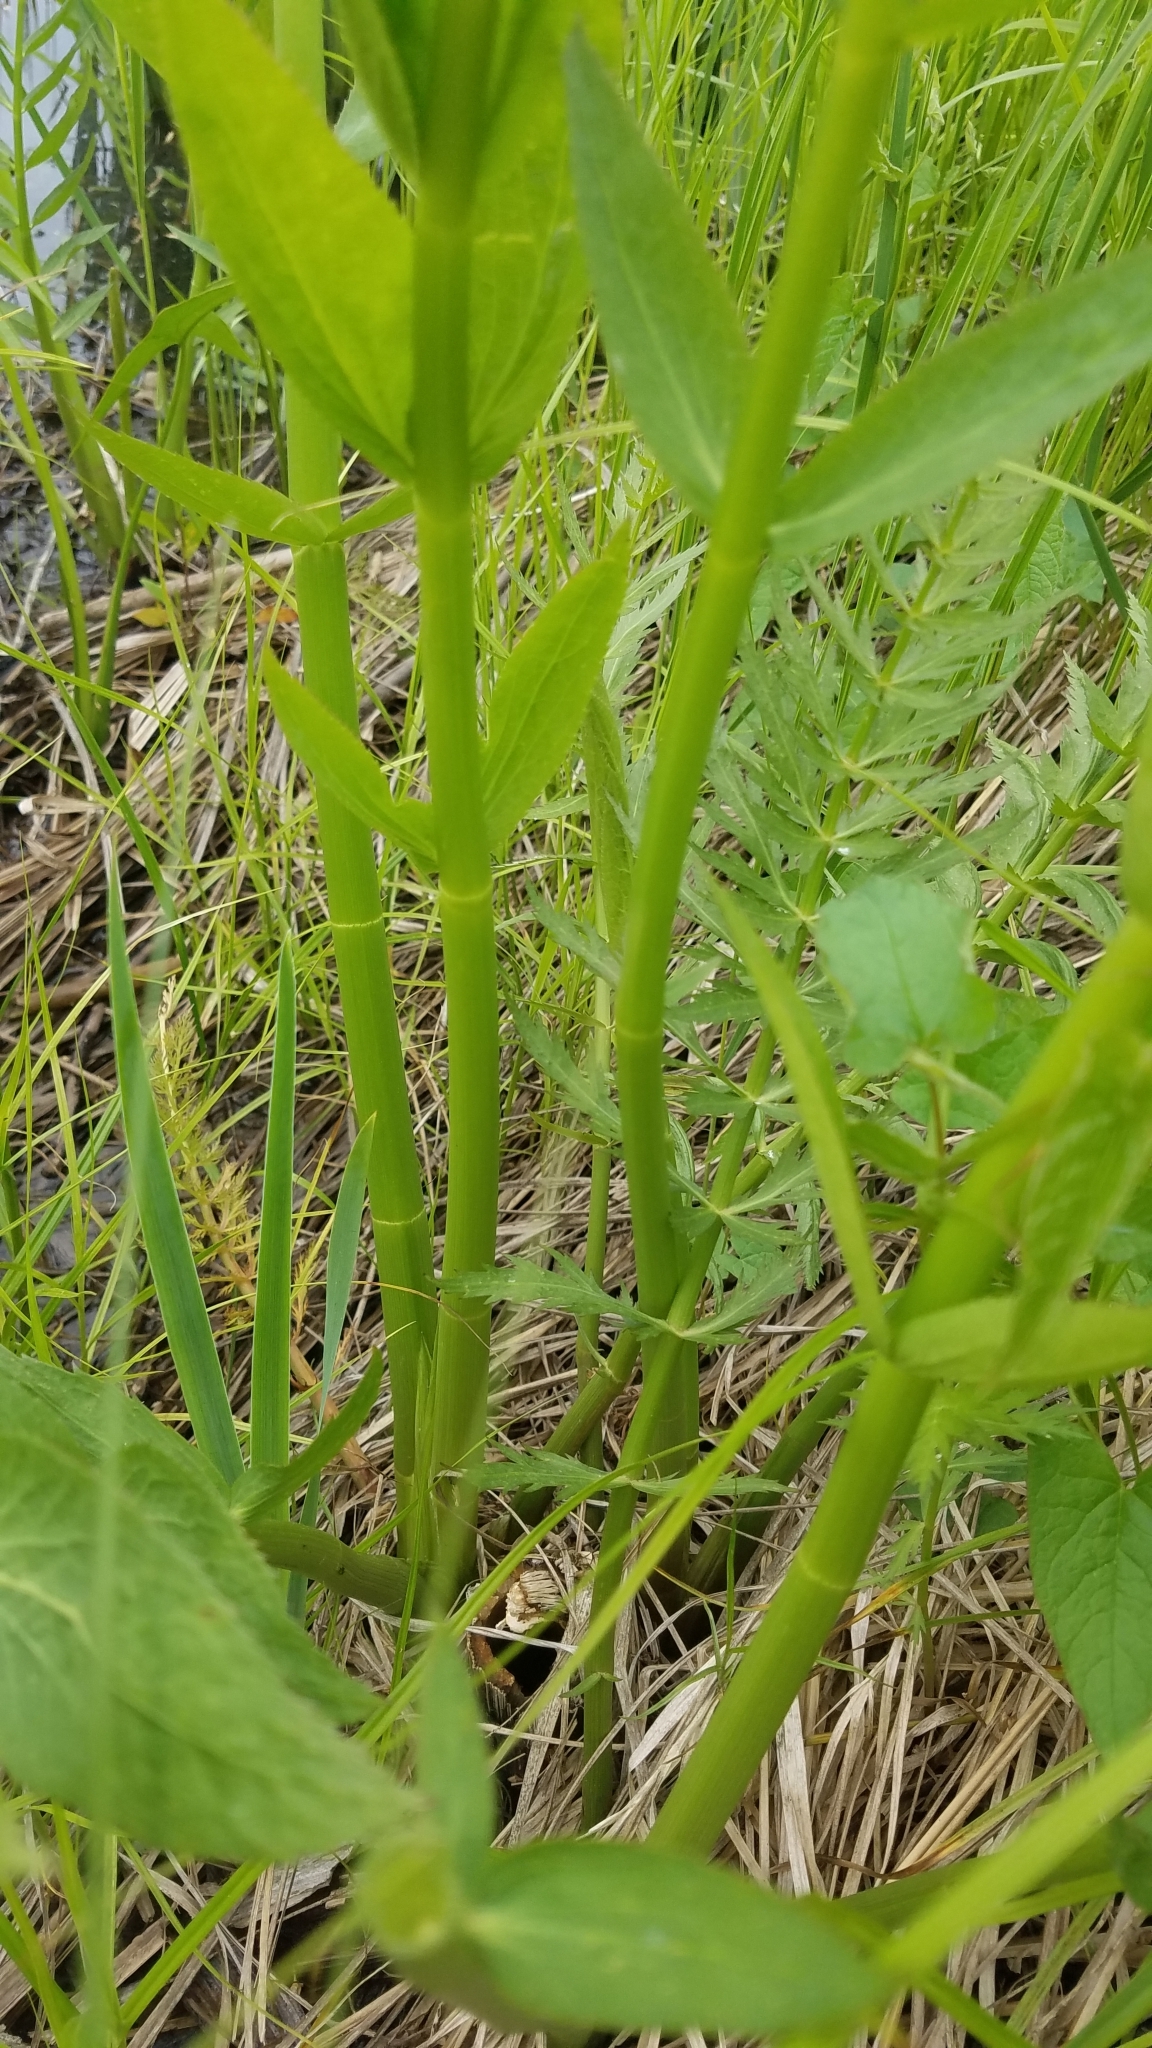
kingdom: Plantae
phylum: Tracheophyta
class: Magnoliopsida
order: Apiales
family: Apiaceae
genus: Sium
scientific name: Sium suave
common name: Hemlock water-parsnip
